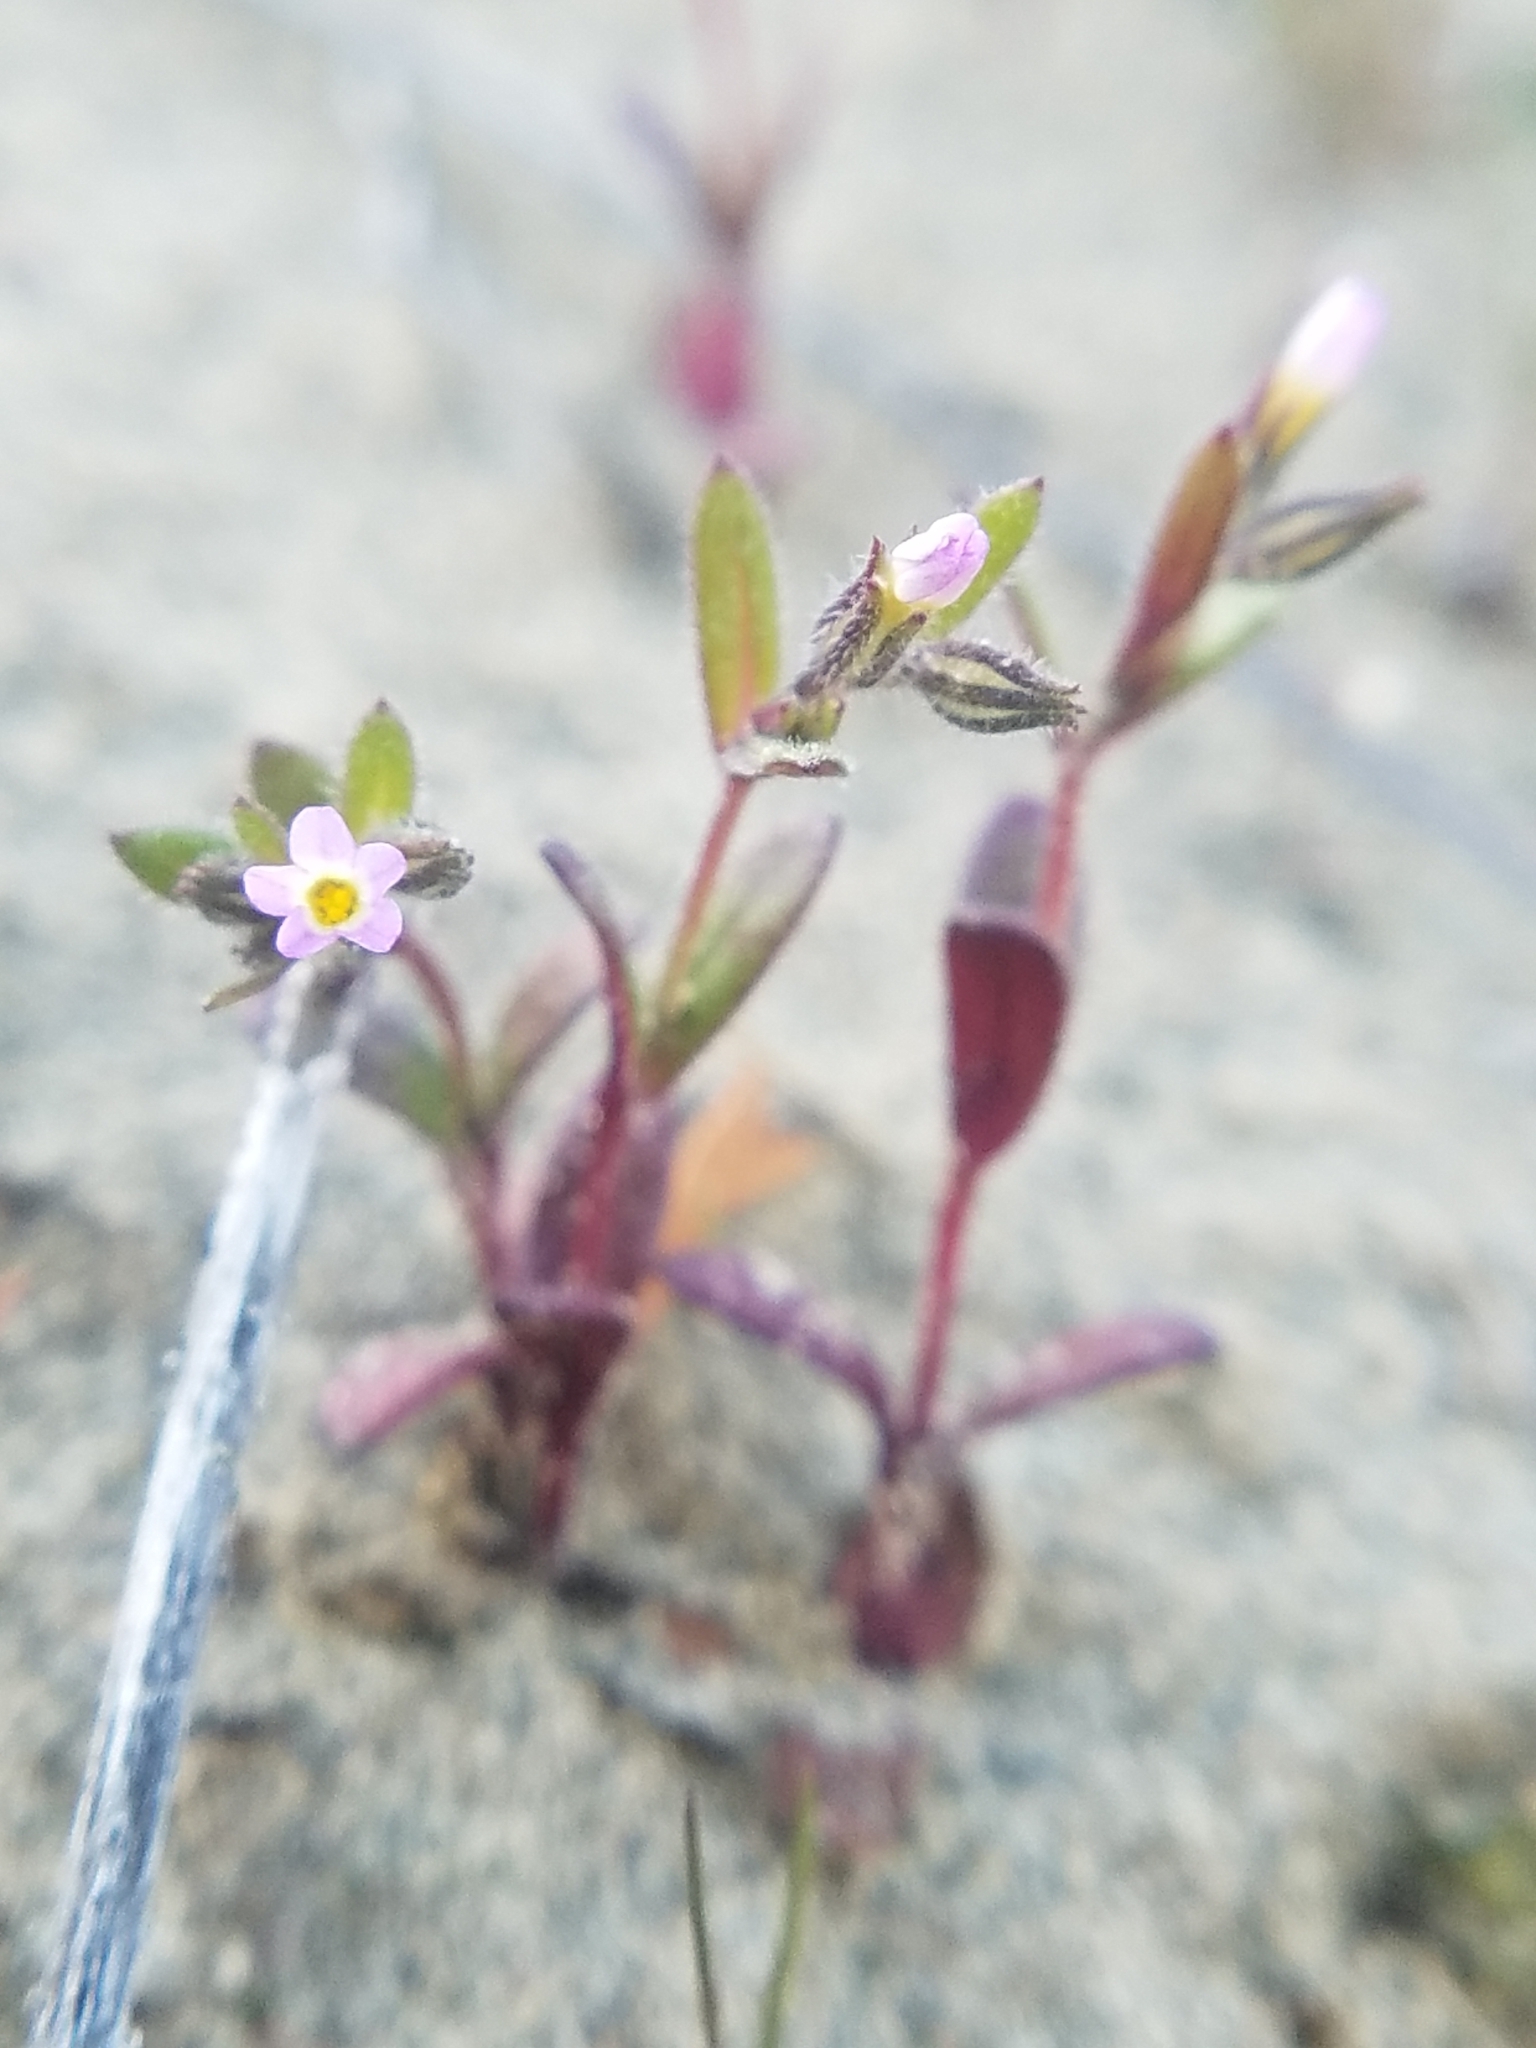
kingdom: Plantae
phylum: Tracheophyta
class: Magnoliopsida
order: Ericales
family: Polemoniaceae
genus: Phlox
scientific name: Phlox gracilis
